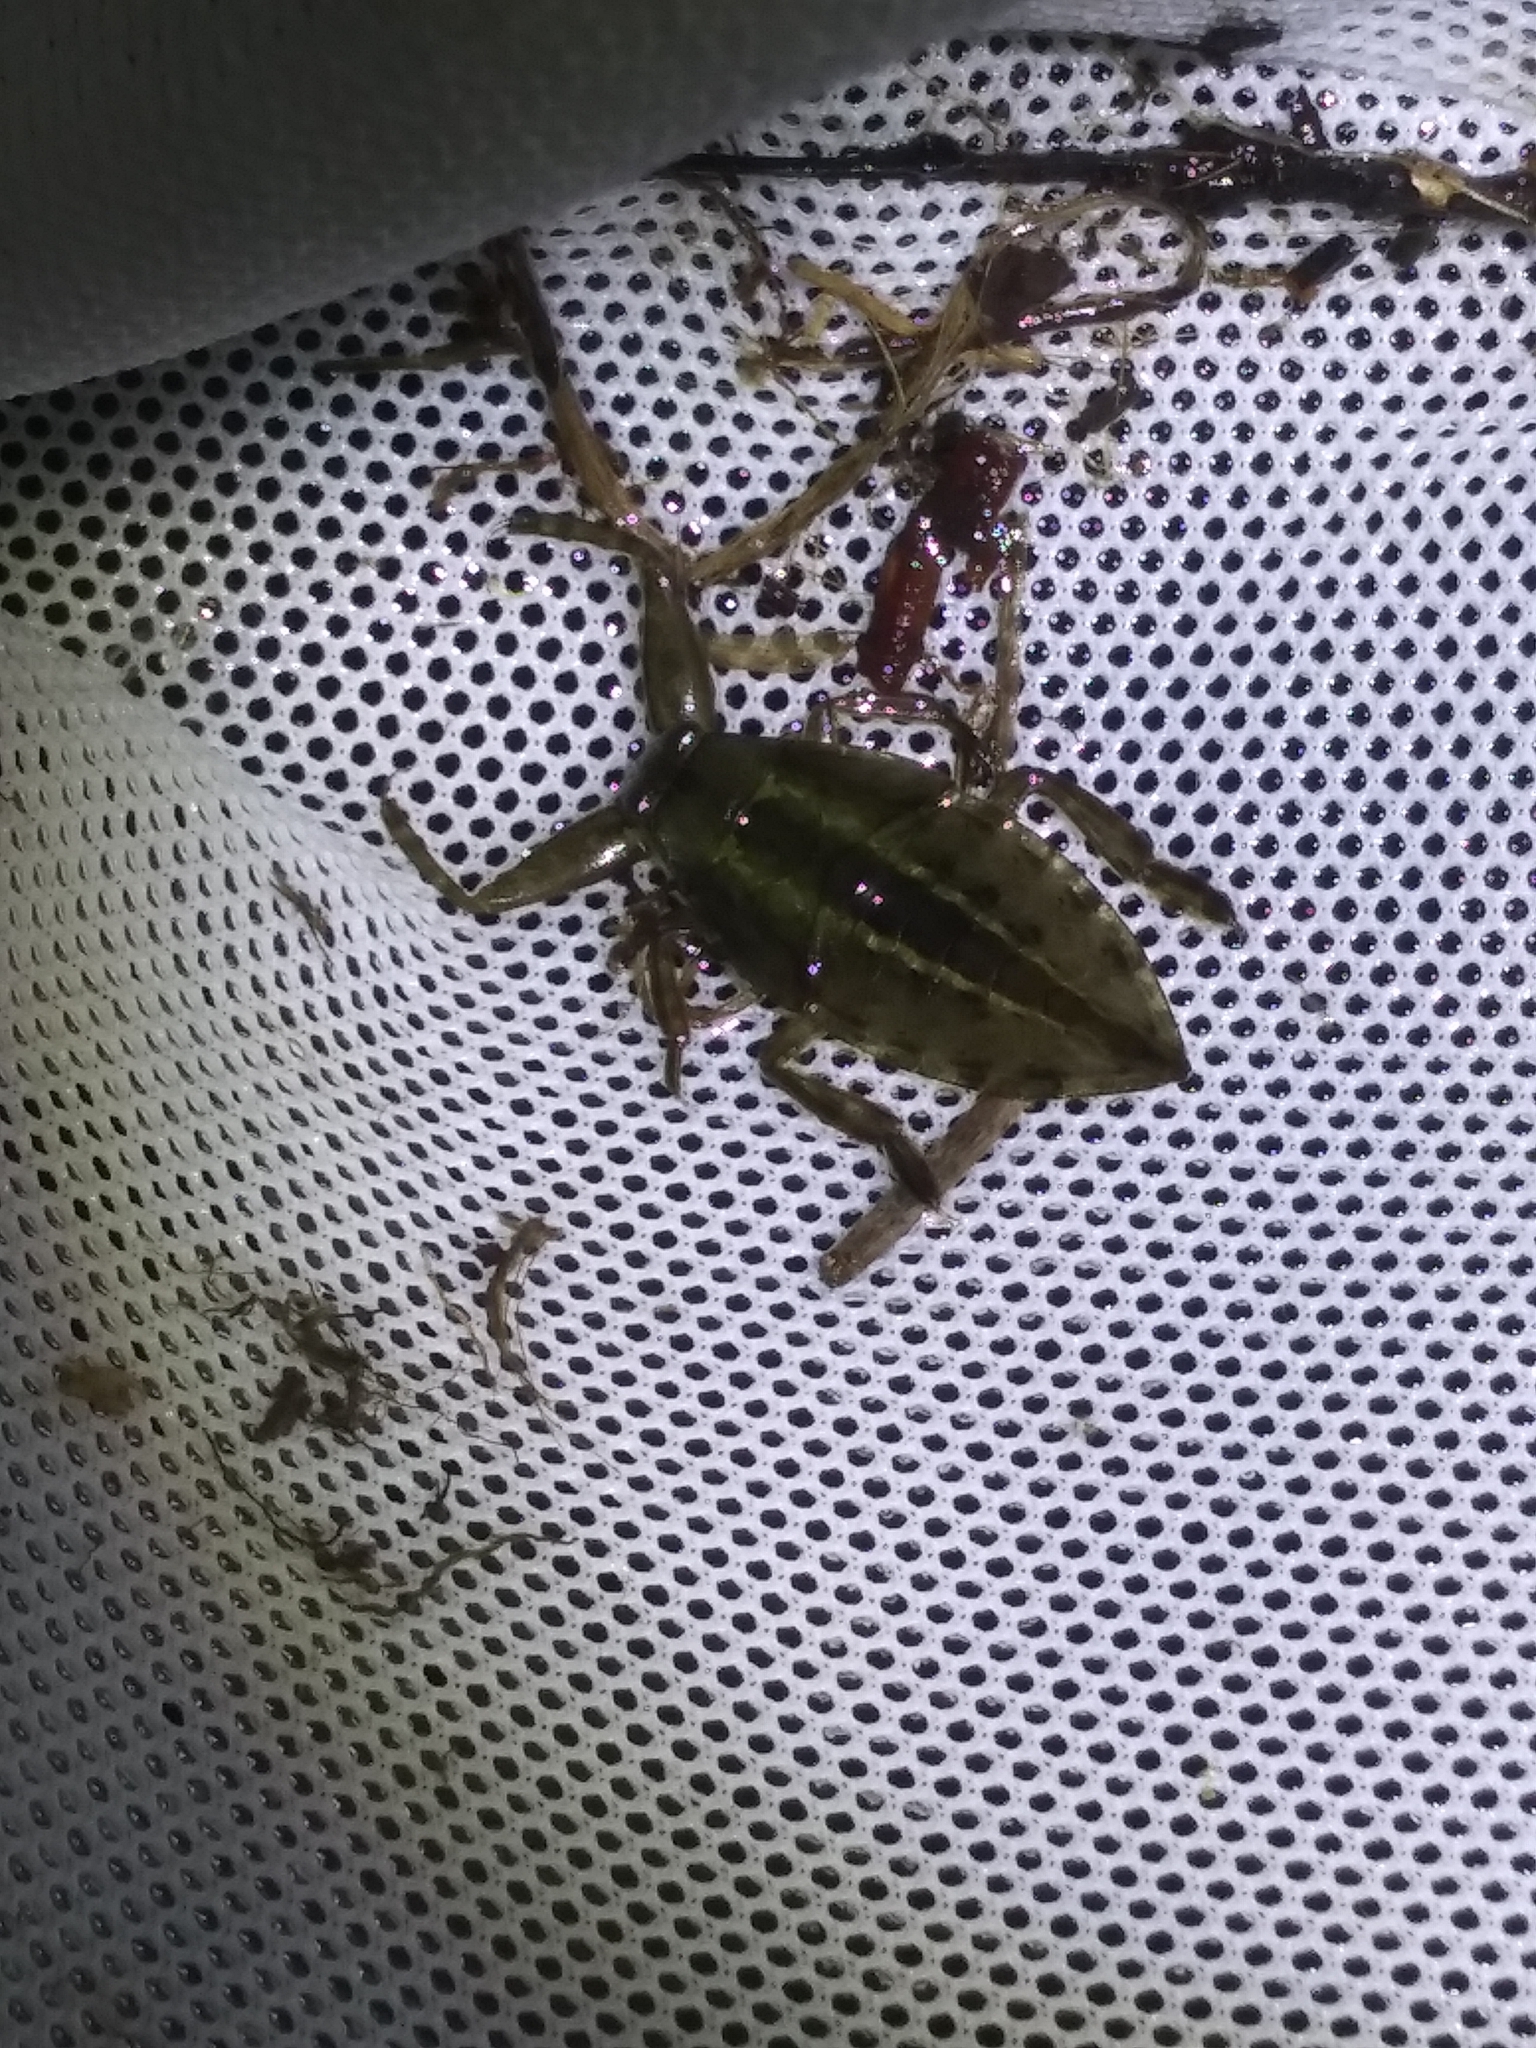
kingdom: Animalia
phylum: Arthropoda
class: Insecta
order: Hemiptera
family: Belostomatidae
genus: Lethocerus
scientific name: Lethocerus uhleri
